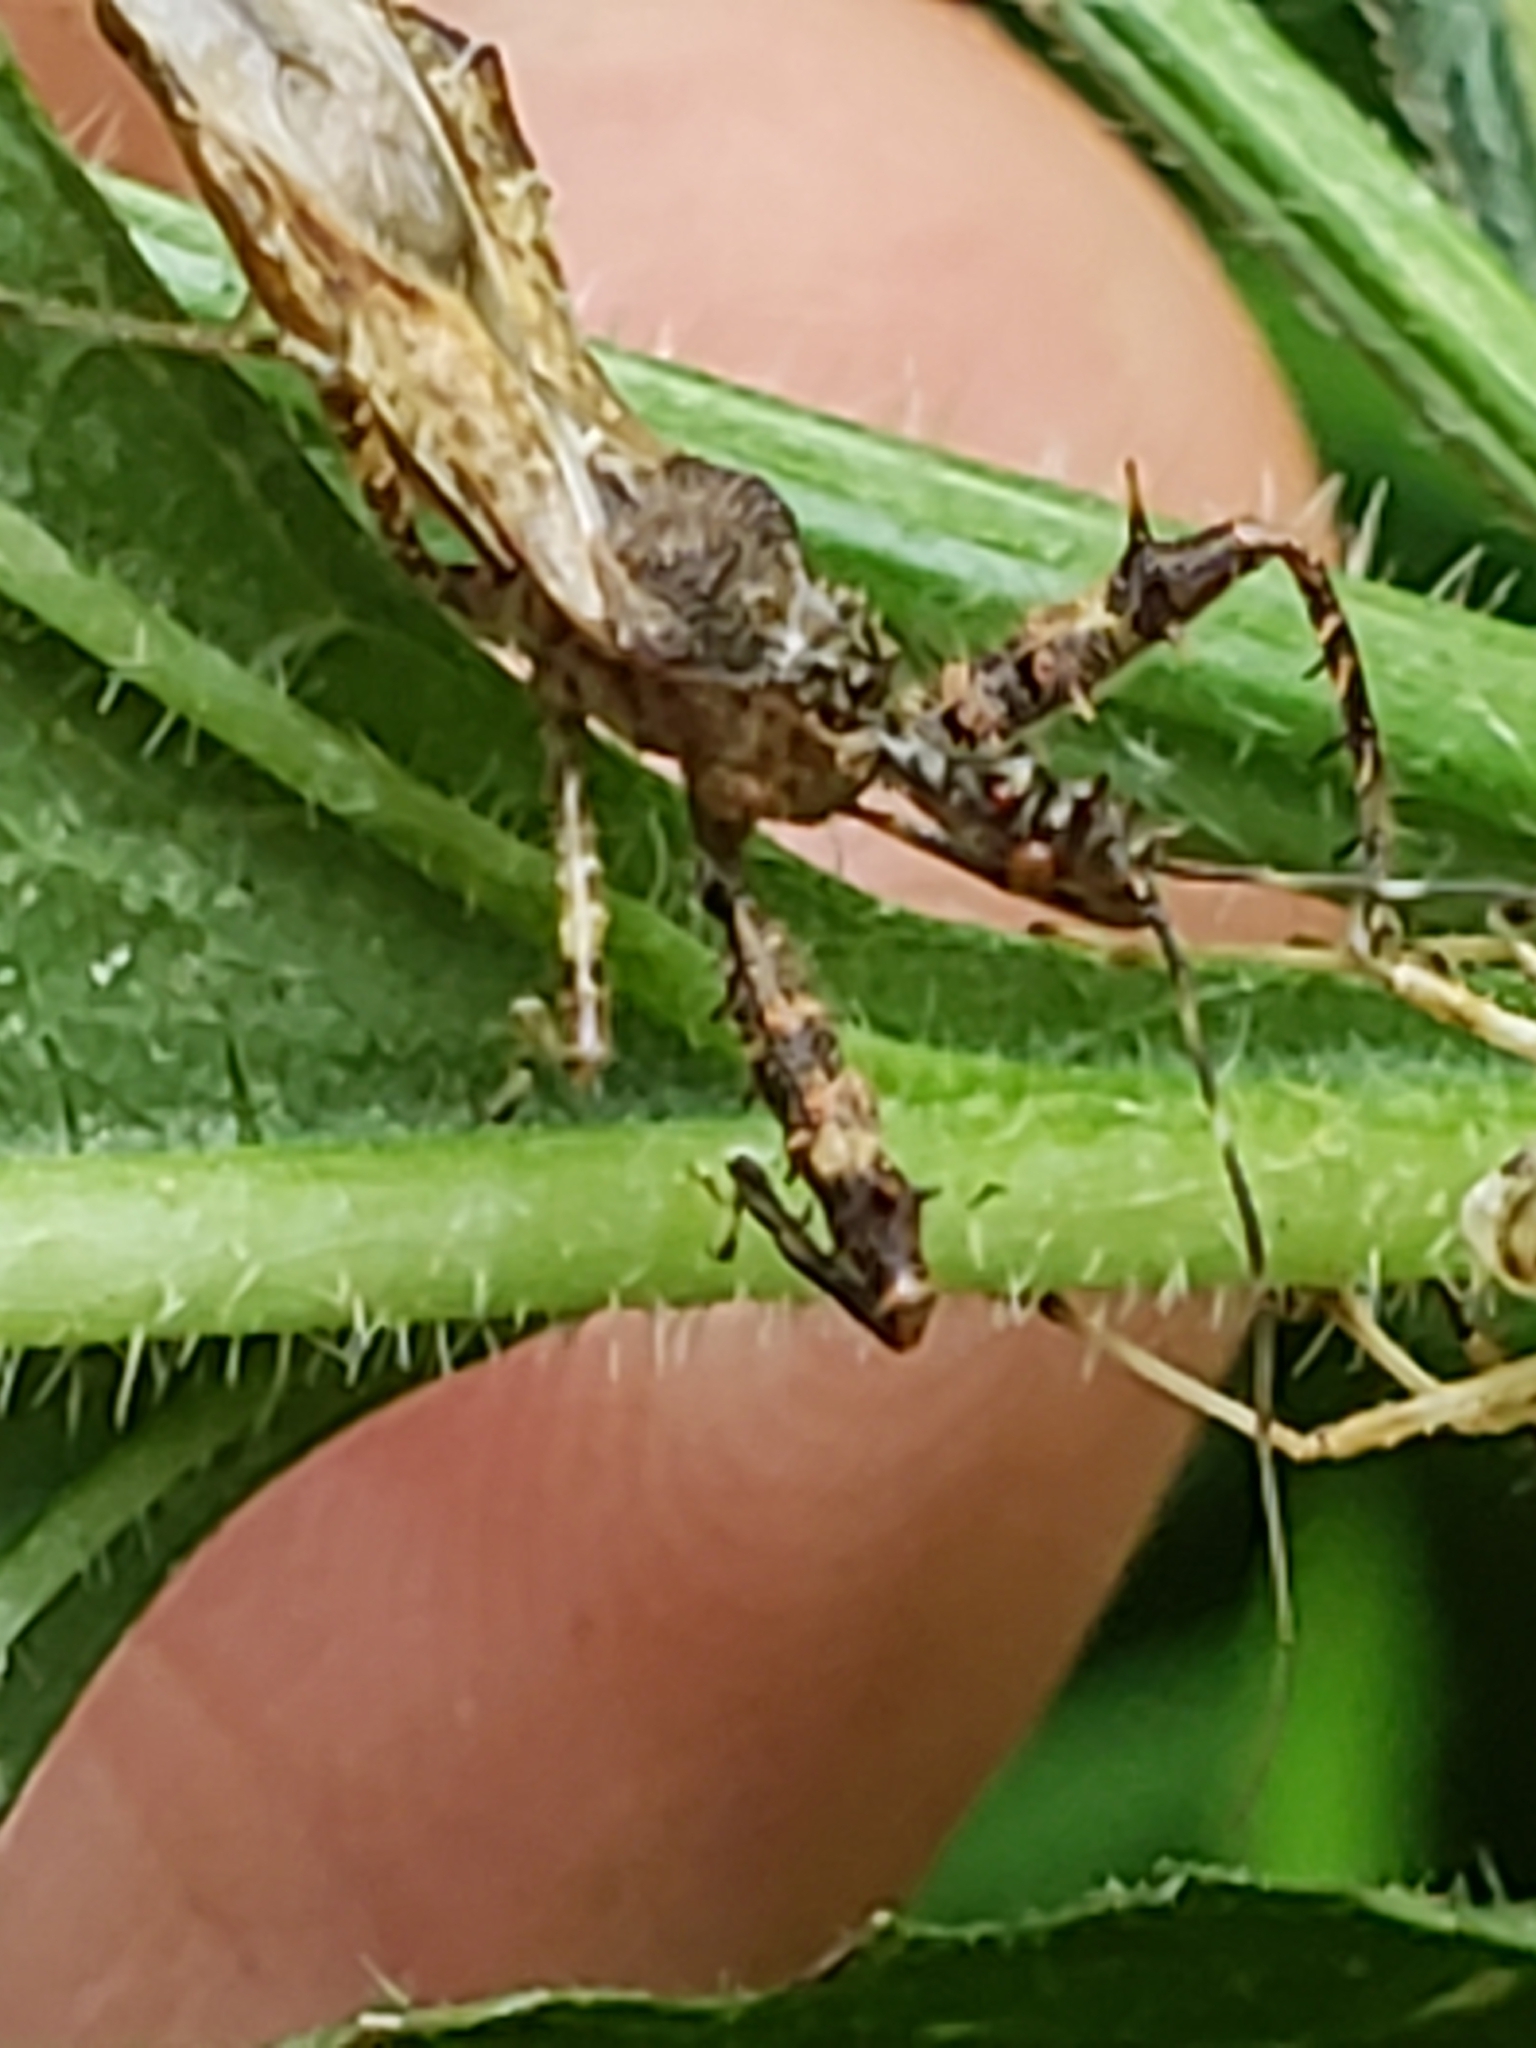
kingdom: Animalia
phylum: Arthropoda
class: Insecta
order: Hemiptera
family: Reduviidae
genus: Sinea
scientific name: Sinea spinipes
